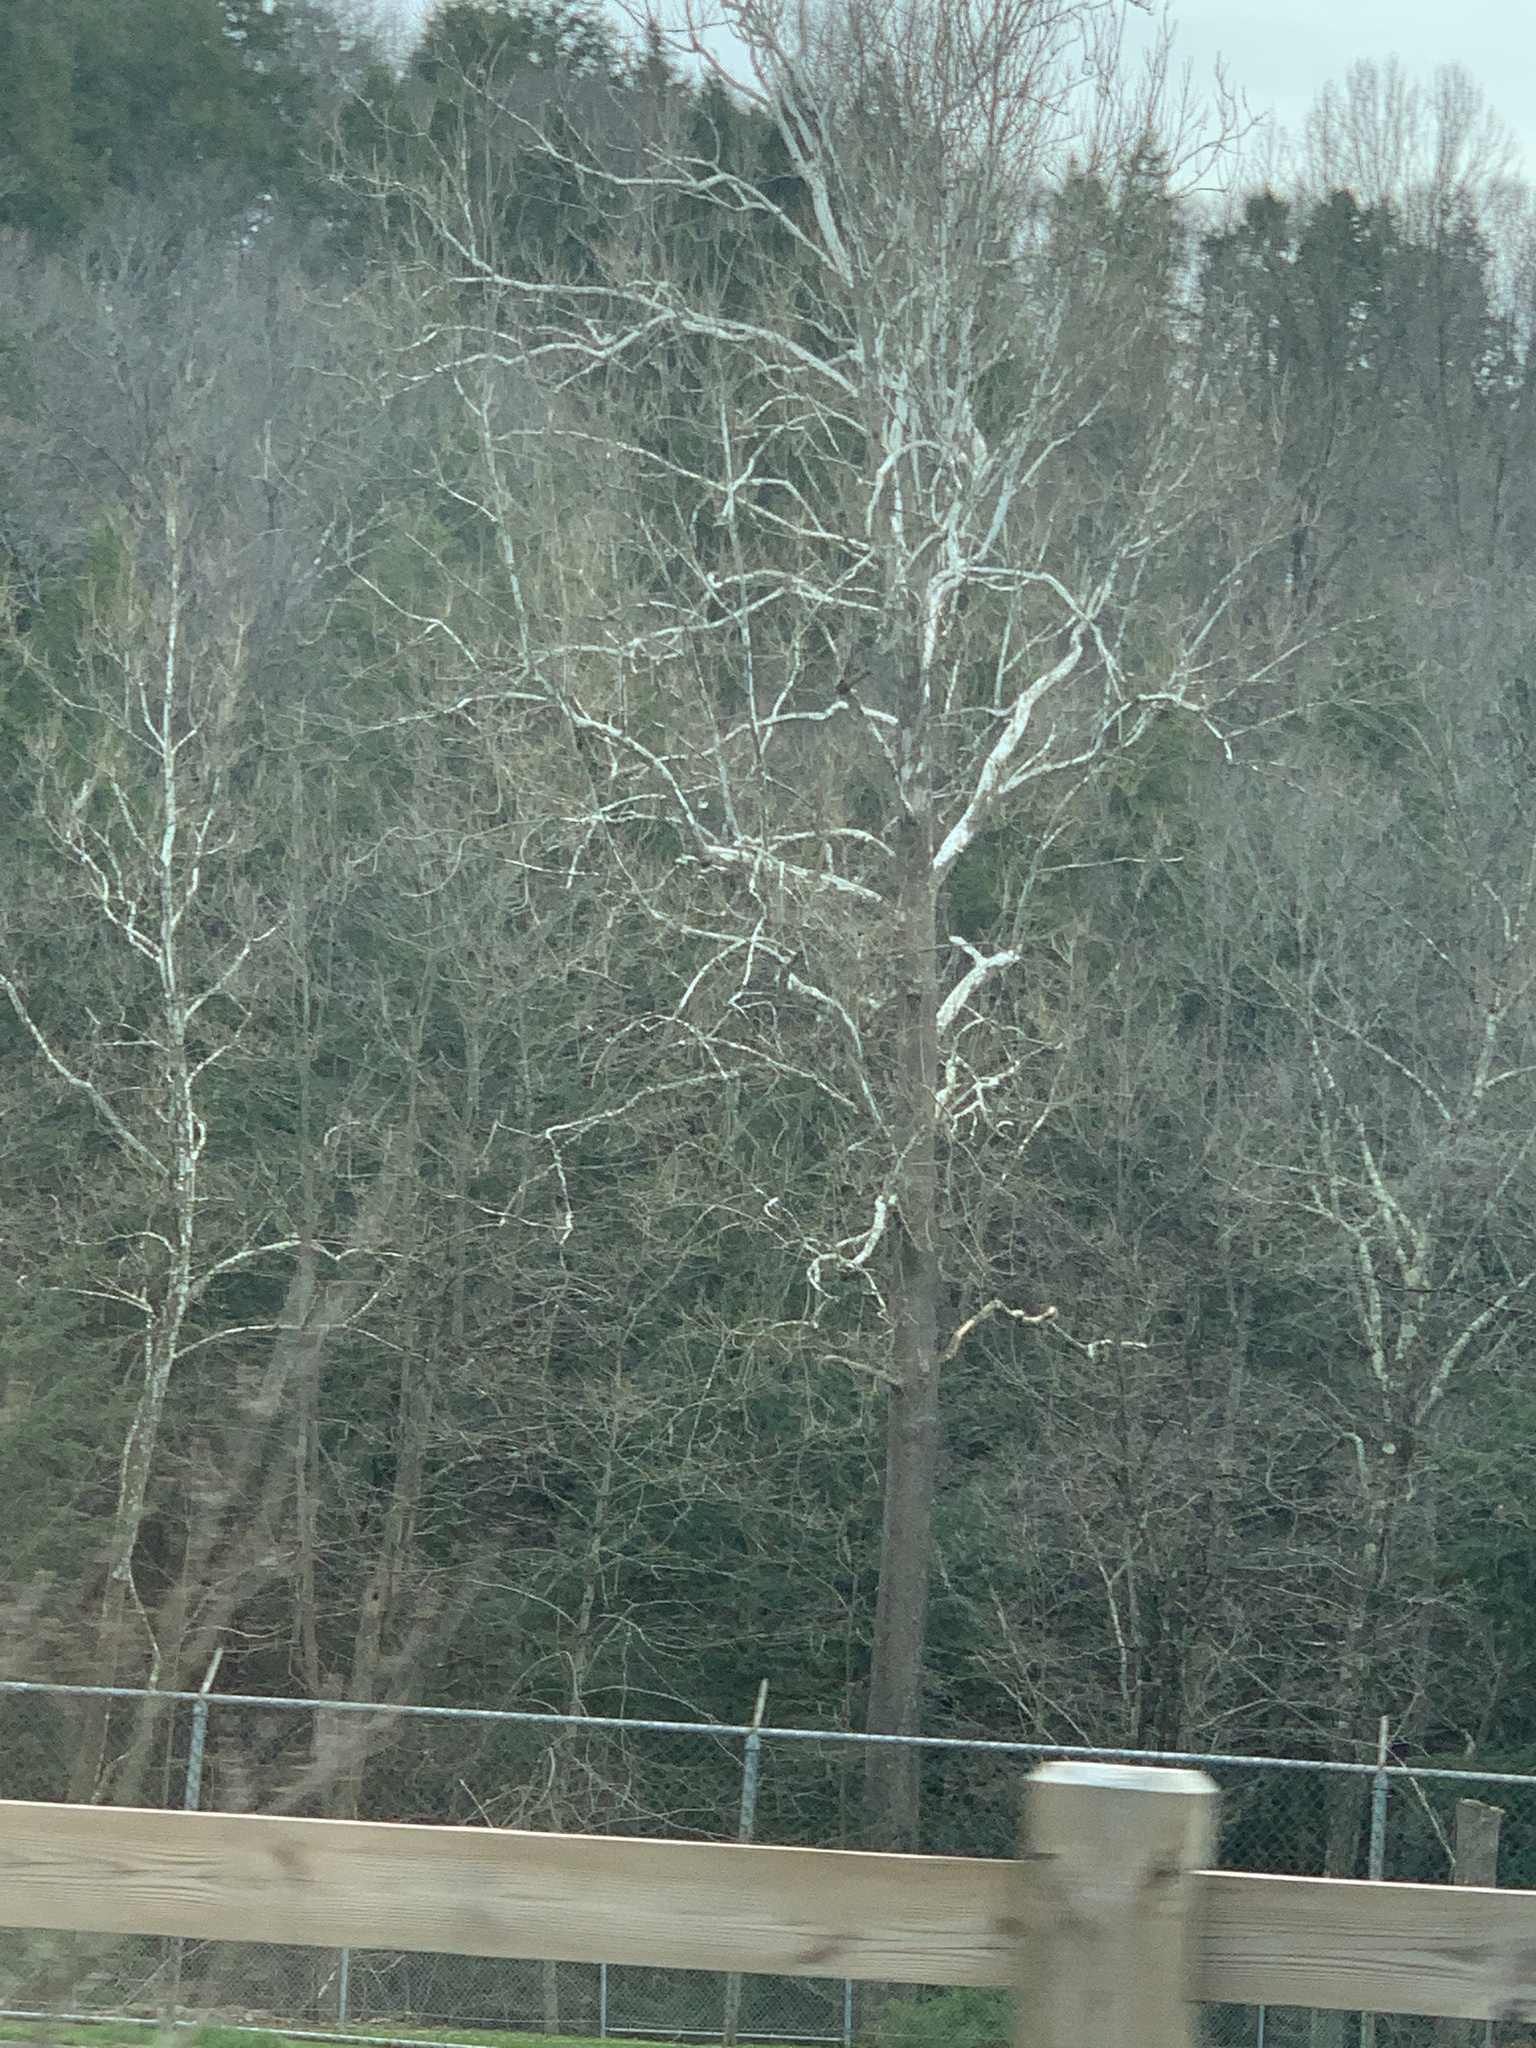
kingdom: Plantae
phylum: Tracheophyta
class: Magnoliopsida
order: Proteales
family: Platanaceae
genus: Platanus
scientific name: Platanus occidentalis
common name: American sycamore
